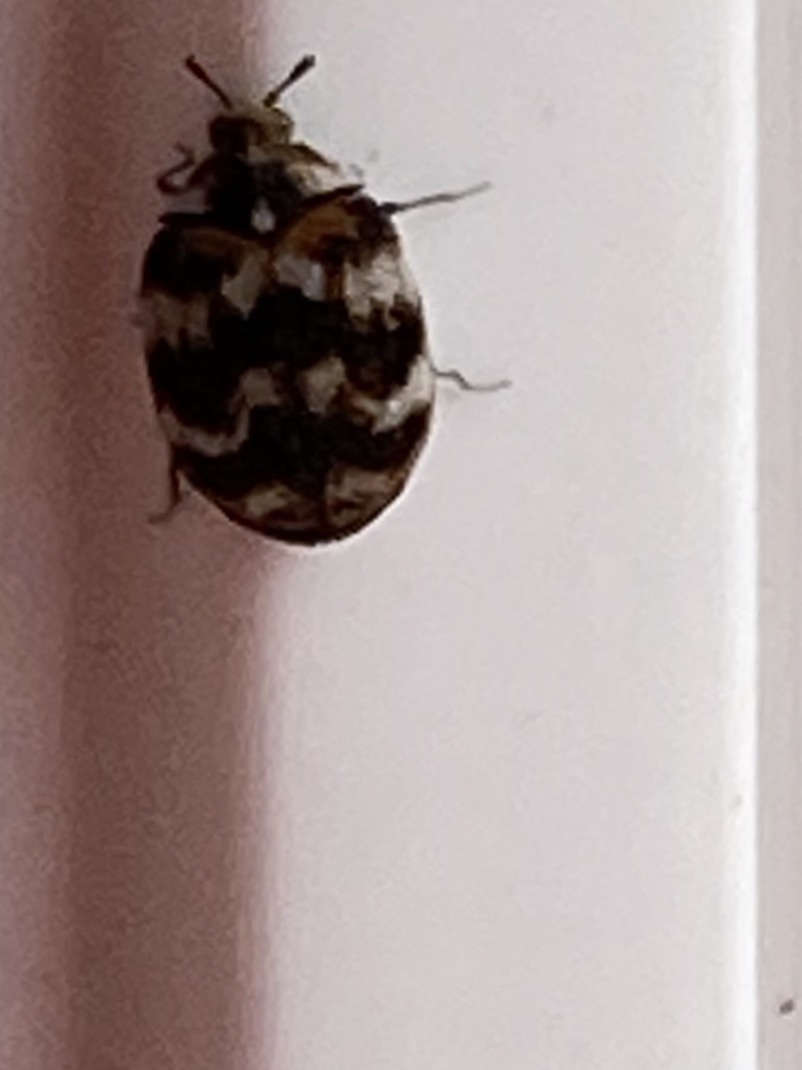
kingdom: Animalia
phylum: Arthropoda
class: Insecta
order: Coleoptera
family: Dermestidae
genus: Anthrenus
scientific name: Anthrenus verbasci
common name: Varied carpet beetle
